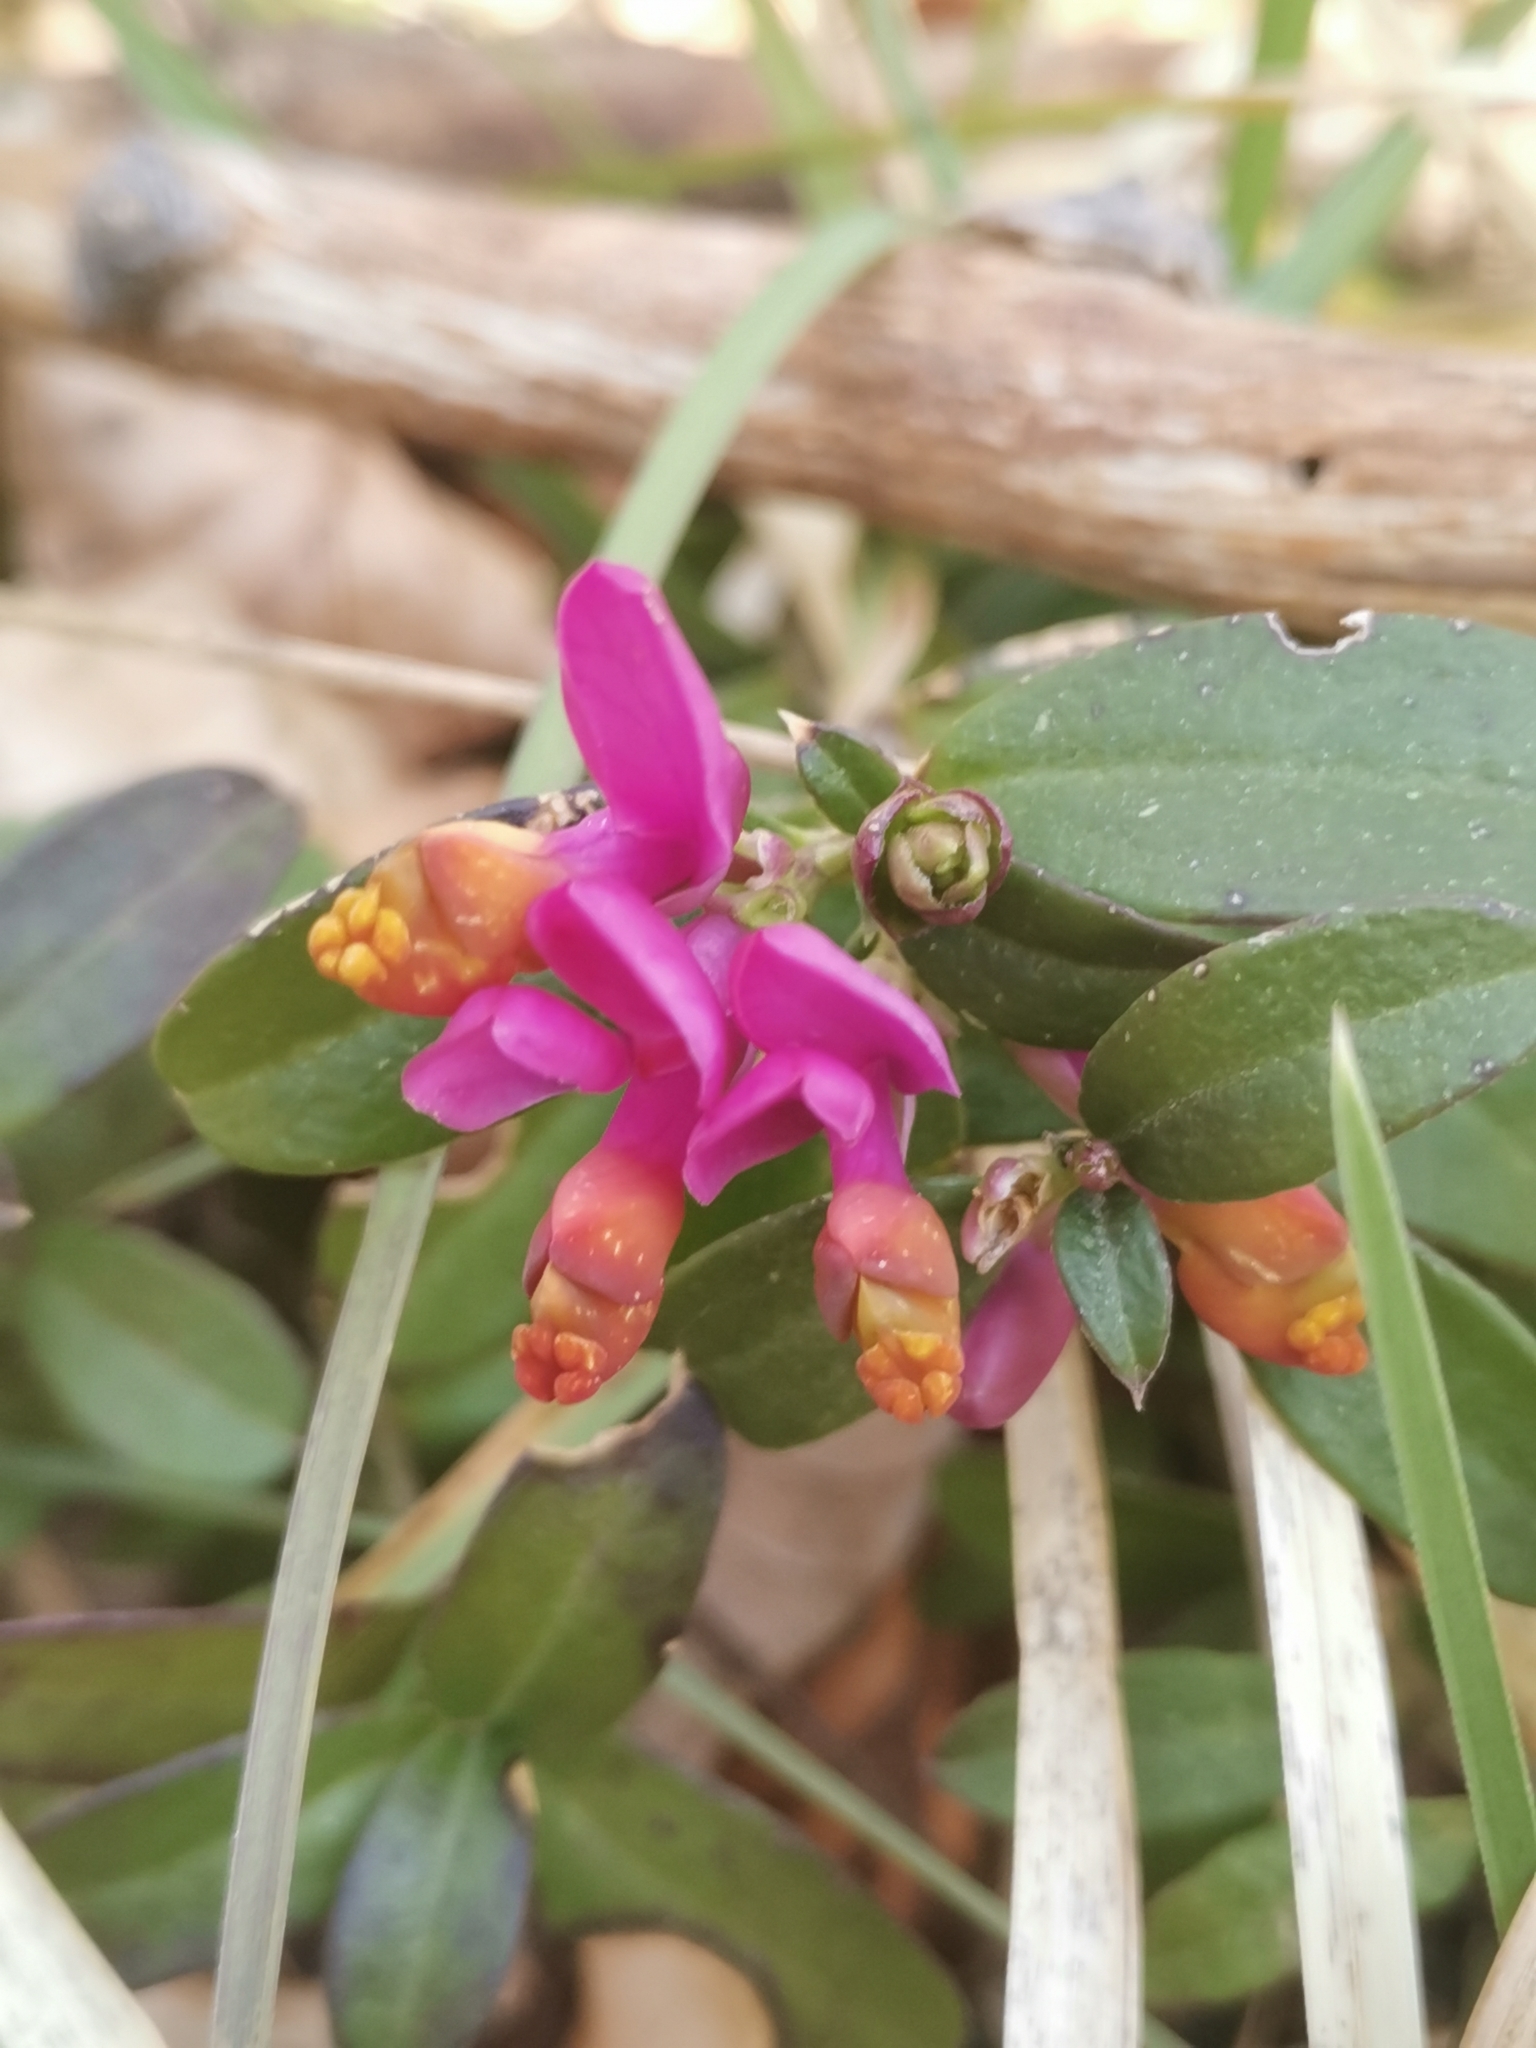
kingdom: Plantae
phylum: Tracheophyta
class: Magnoliopsida
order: Fabales
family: Polygalaceae
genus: Polygaloides
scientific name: Polygaloides chamaebuxus
